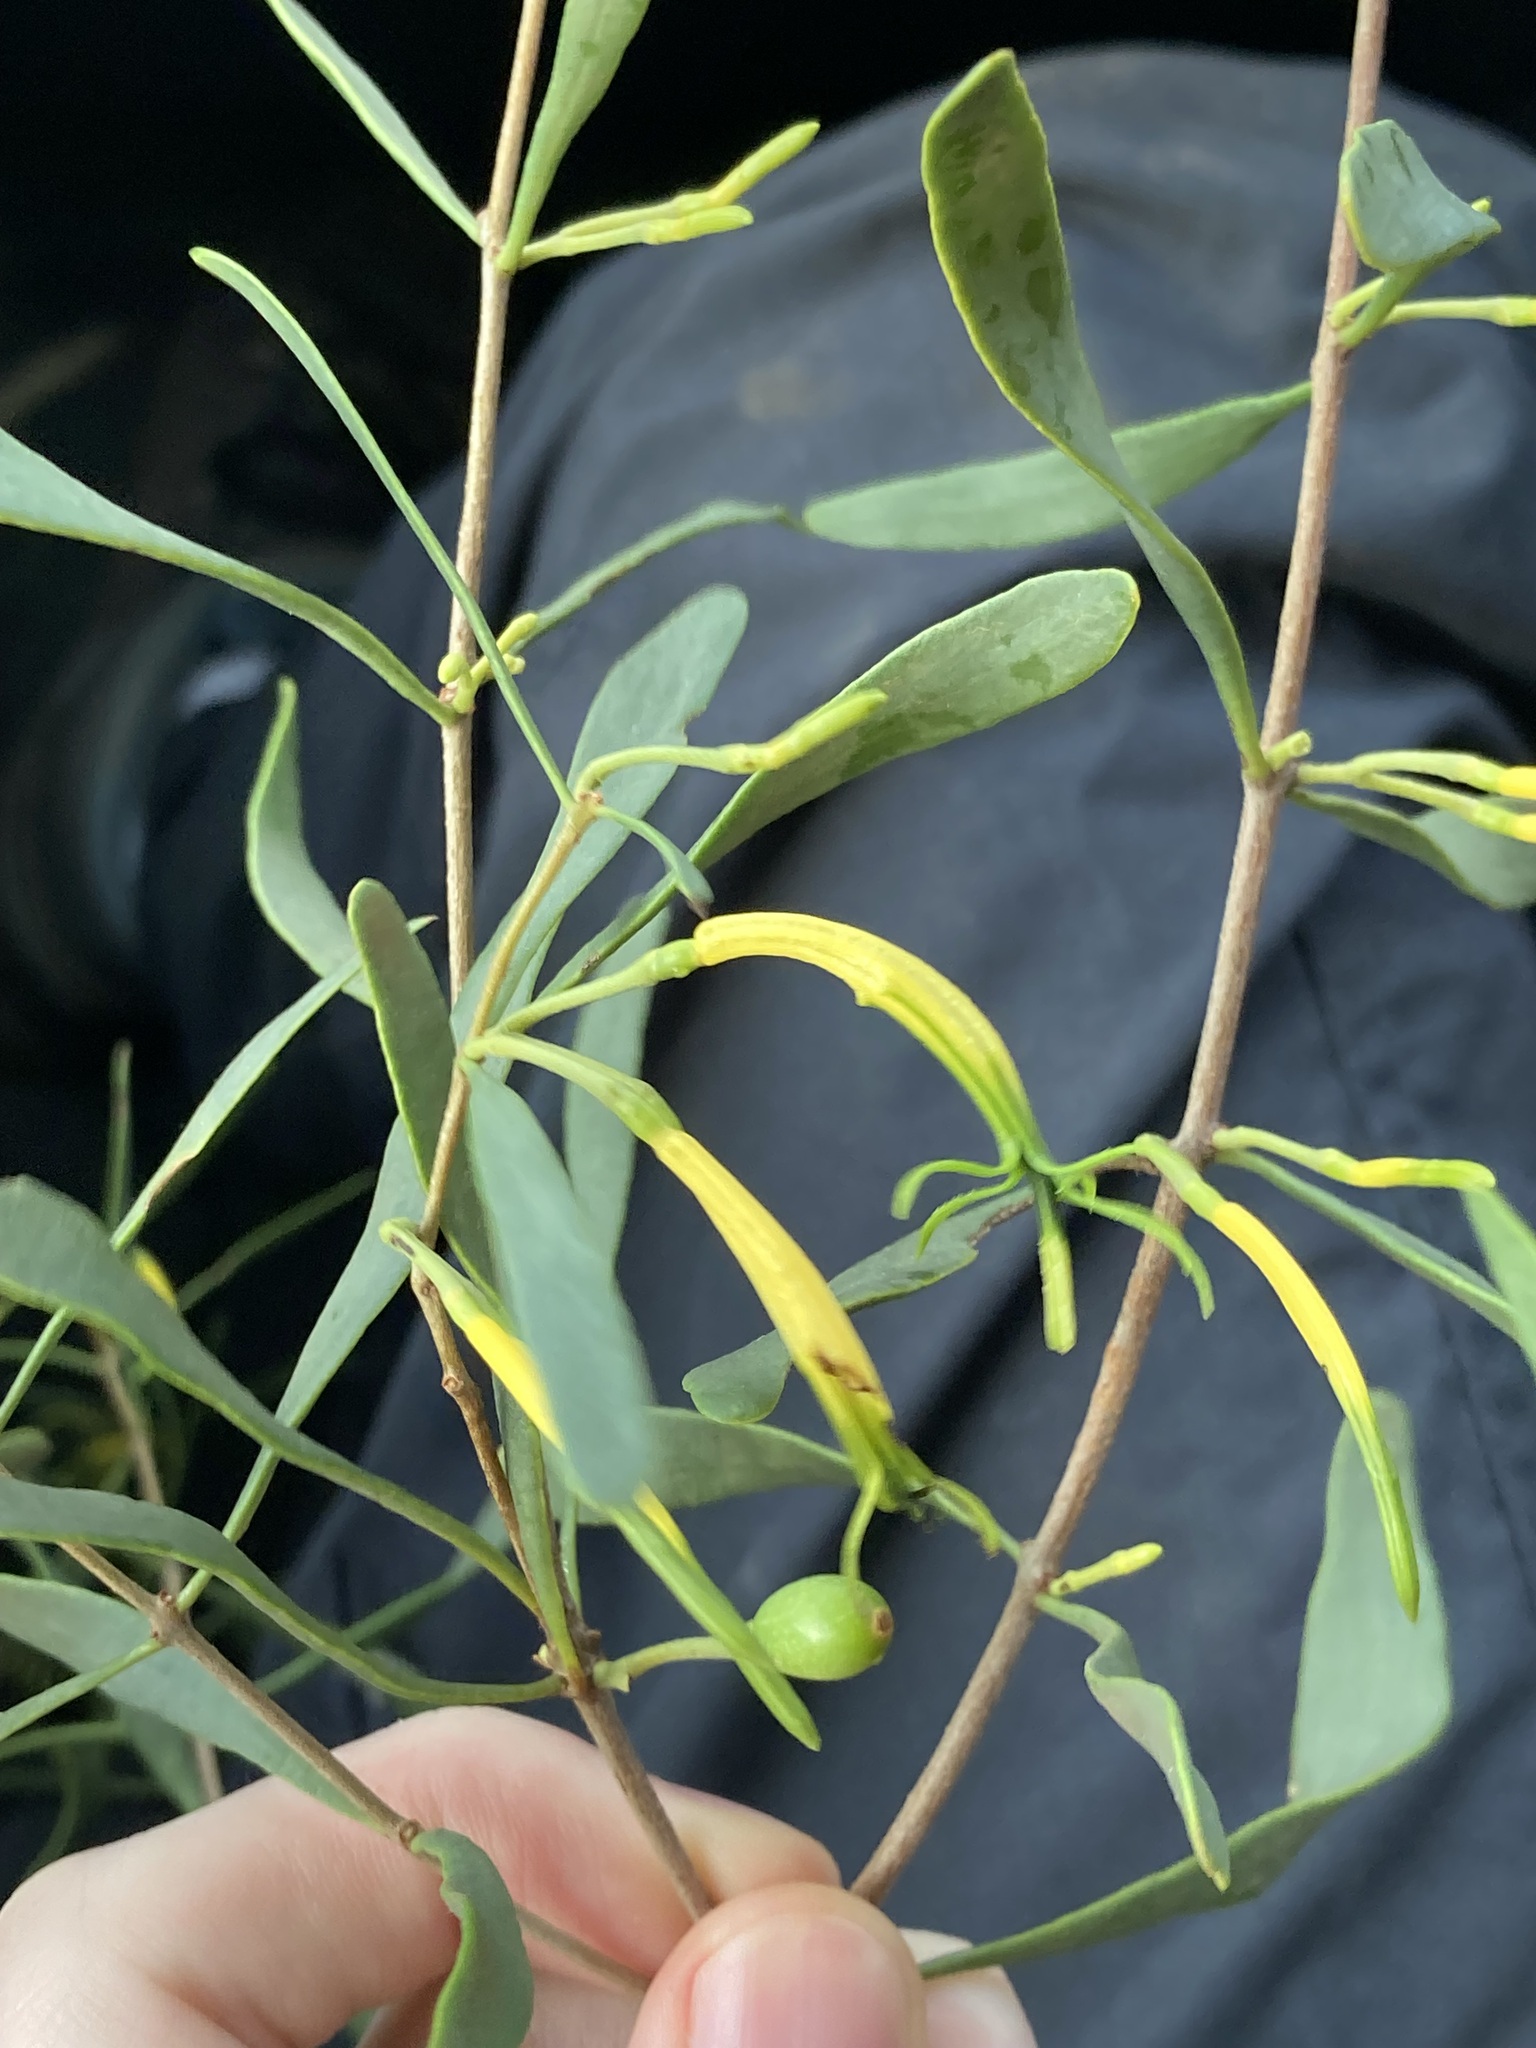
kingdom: Plantae
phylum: Tracheophyta
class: Magnoliopsida
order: Santalales
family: Loranthaceae
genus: Lysiana
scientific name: Lysiana subfalcata
